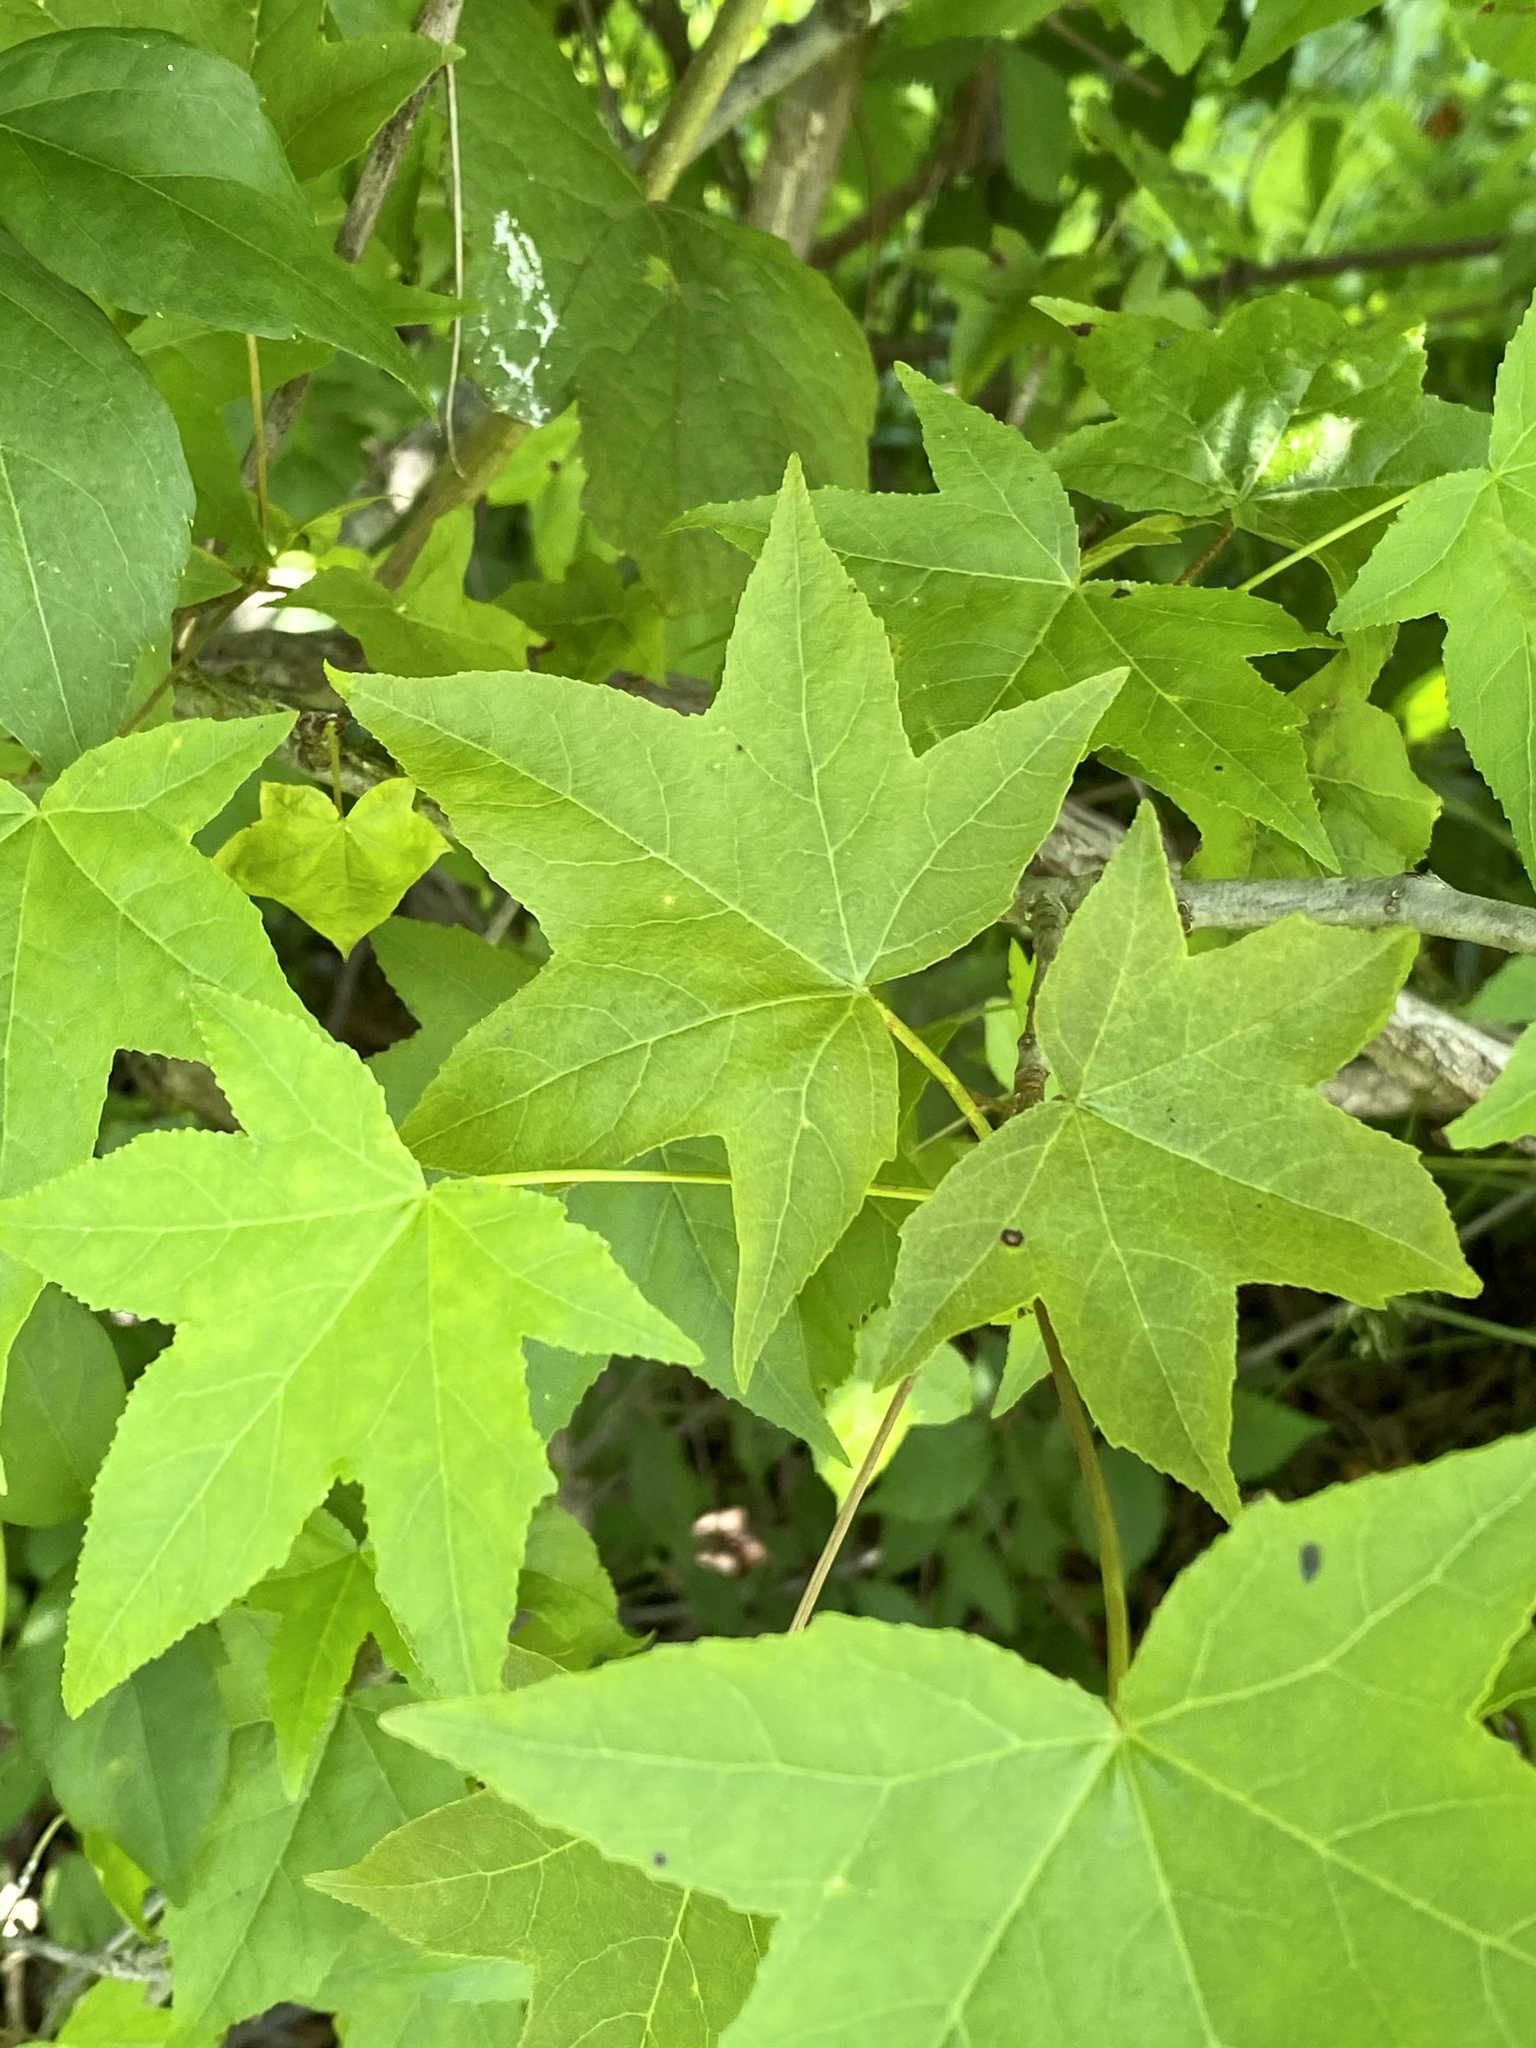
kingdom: Plantae
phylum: Tracheophyta
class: Magnoliopsida
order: Saxifragales
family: Altingiaceae
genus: Liquidambar
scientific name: Liquidambar styraciflua
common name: Sweet gum
